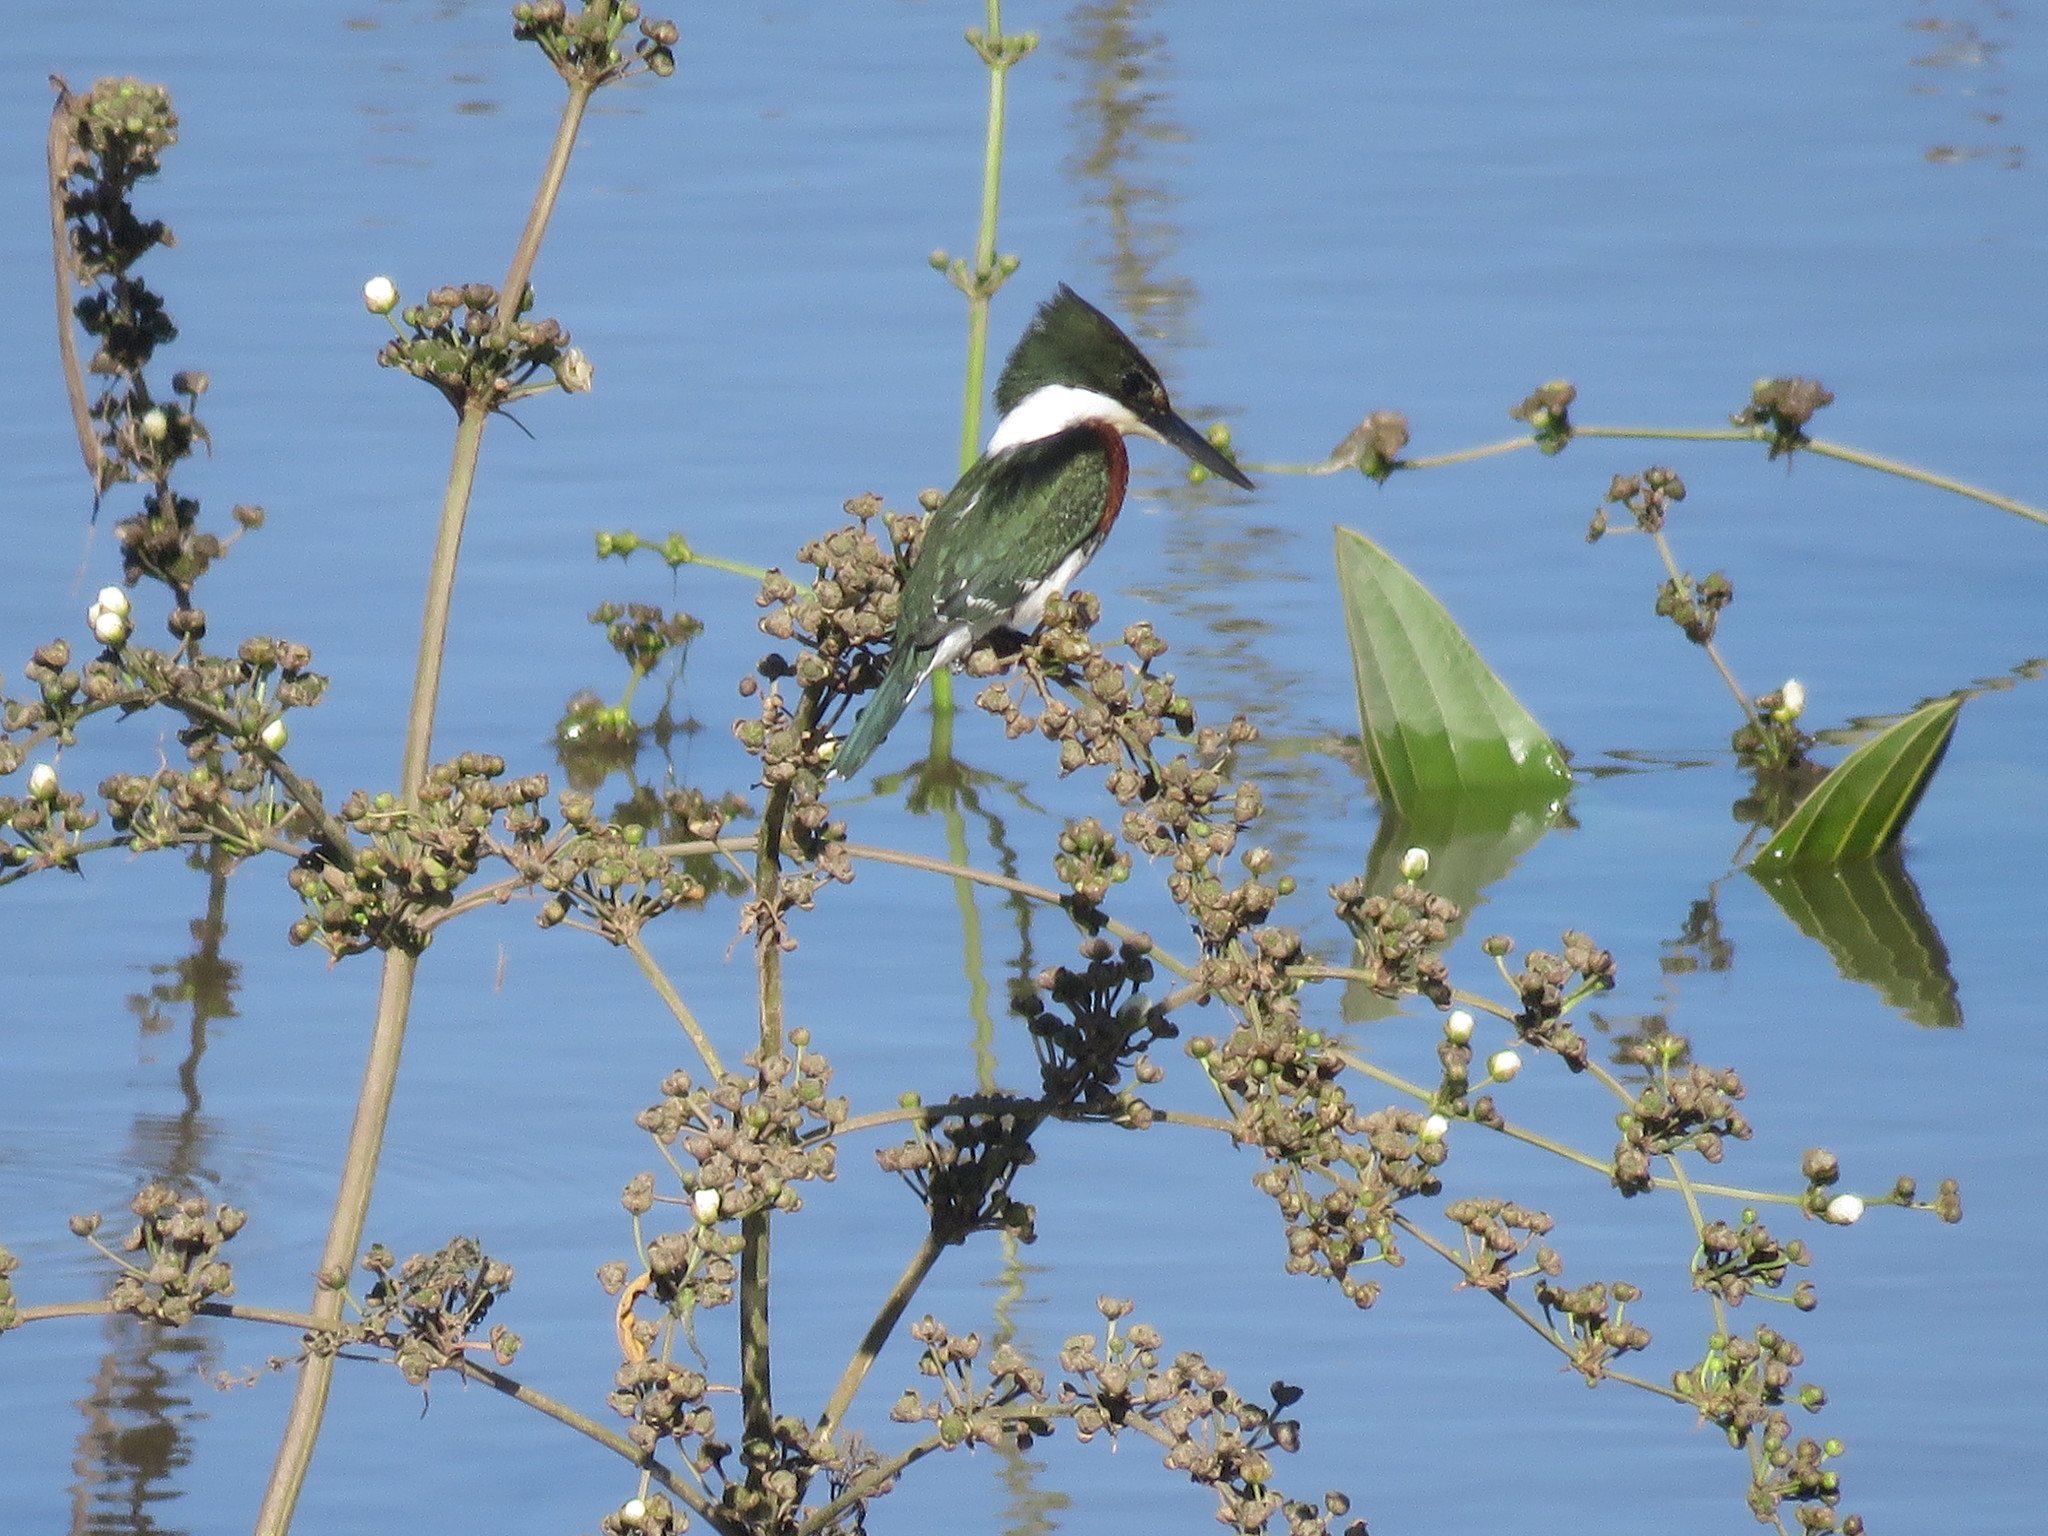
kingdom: Animalia
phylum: Chordata
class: Aves
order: Coraciiformes
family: Alcedinidae
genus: Chloroceryle
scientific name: Chloroceryle americana
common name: Green kingfisher
